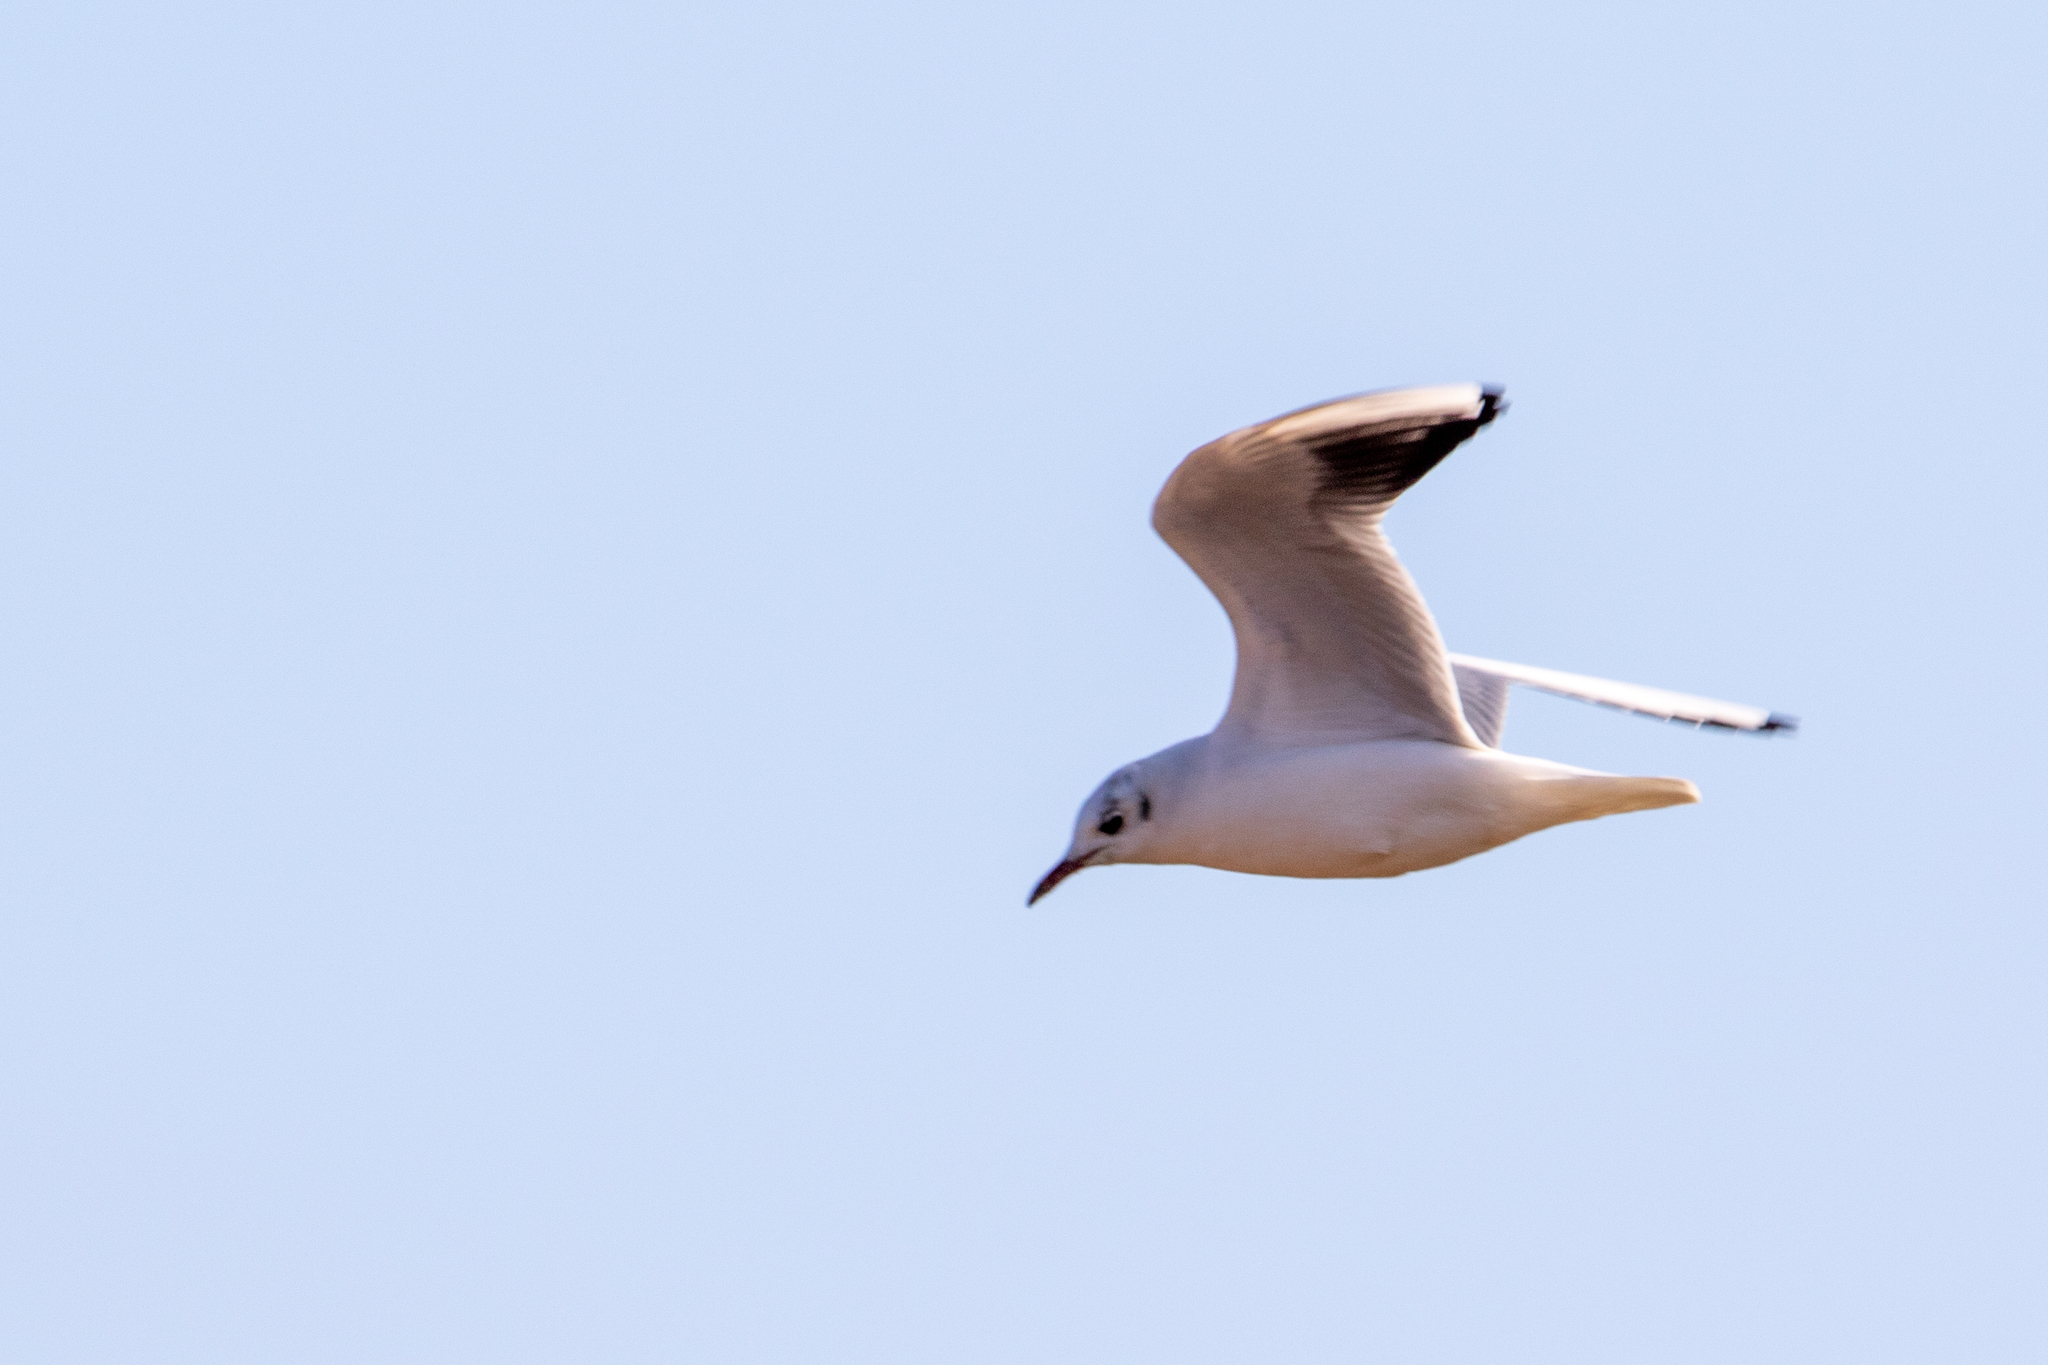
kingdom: Animalia
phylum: Chordata
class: Aves
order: Charadriiformes
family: Laridae
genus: Chroicocephalus
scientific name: Chroicocephalus ridibundus
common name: Black-headed gull
